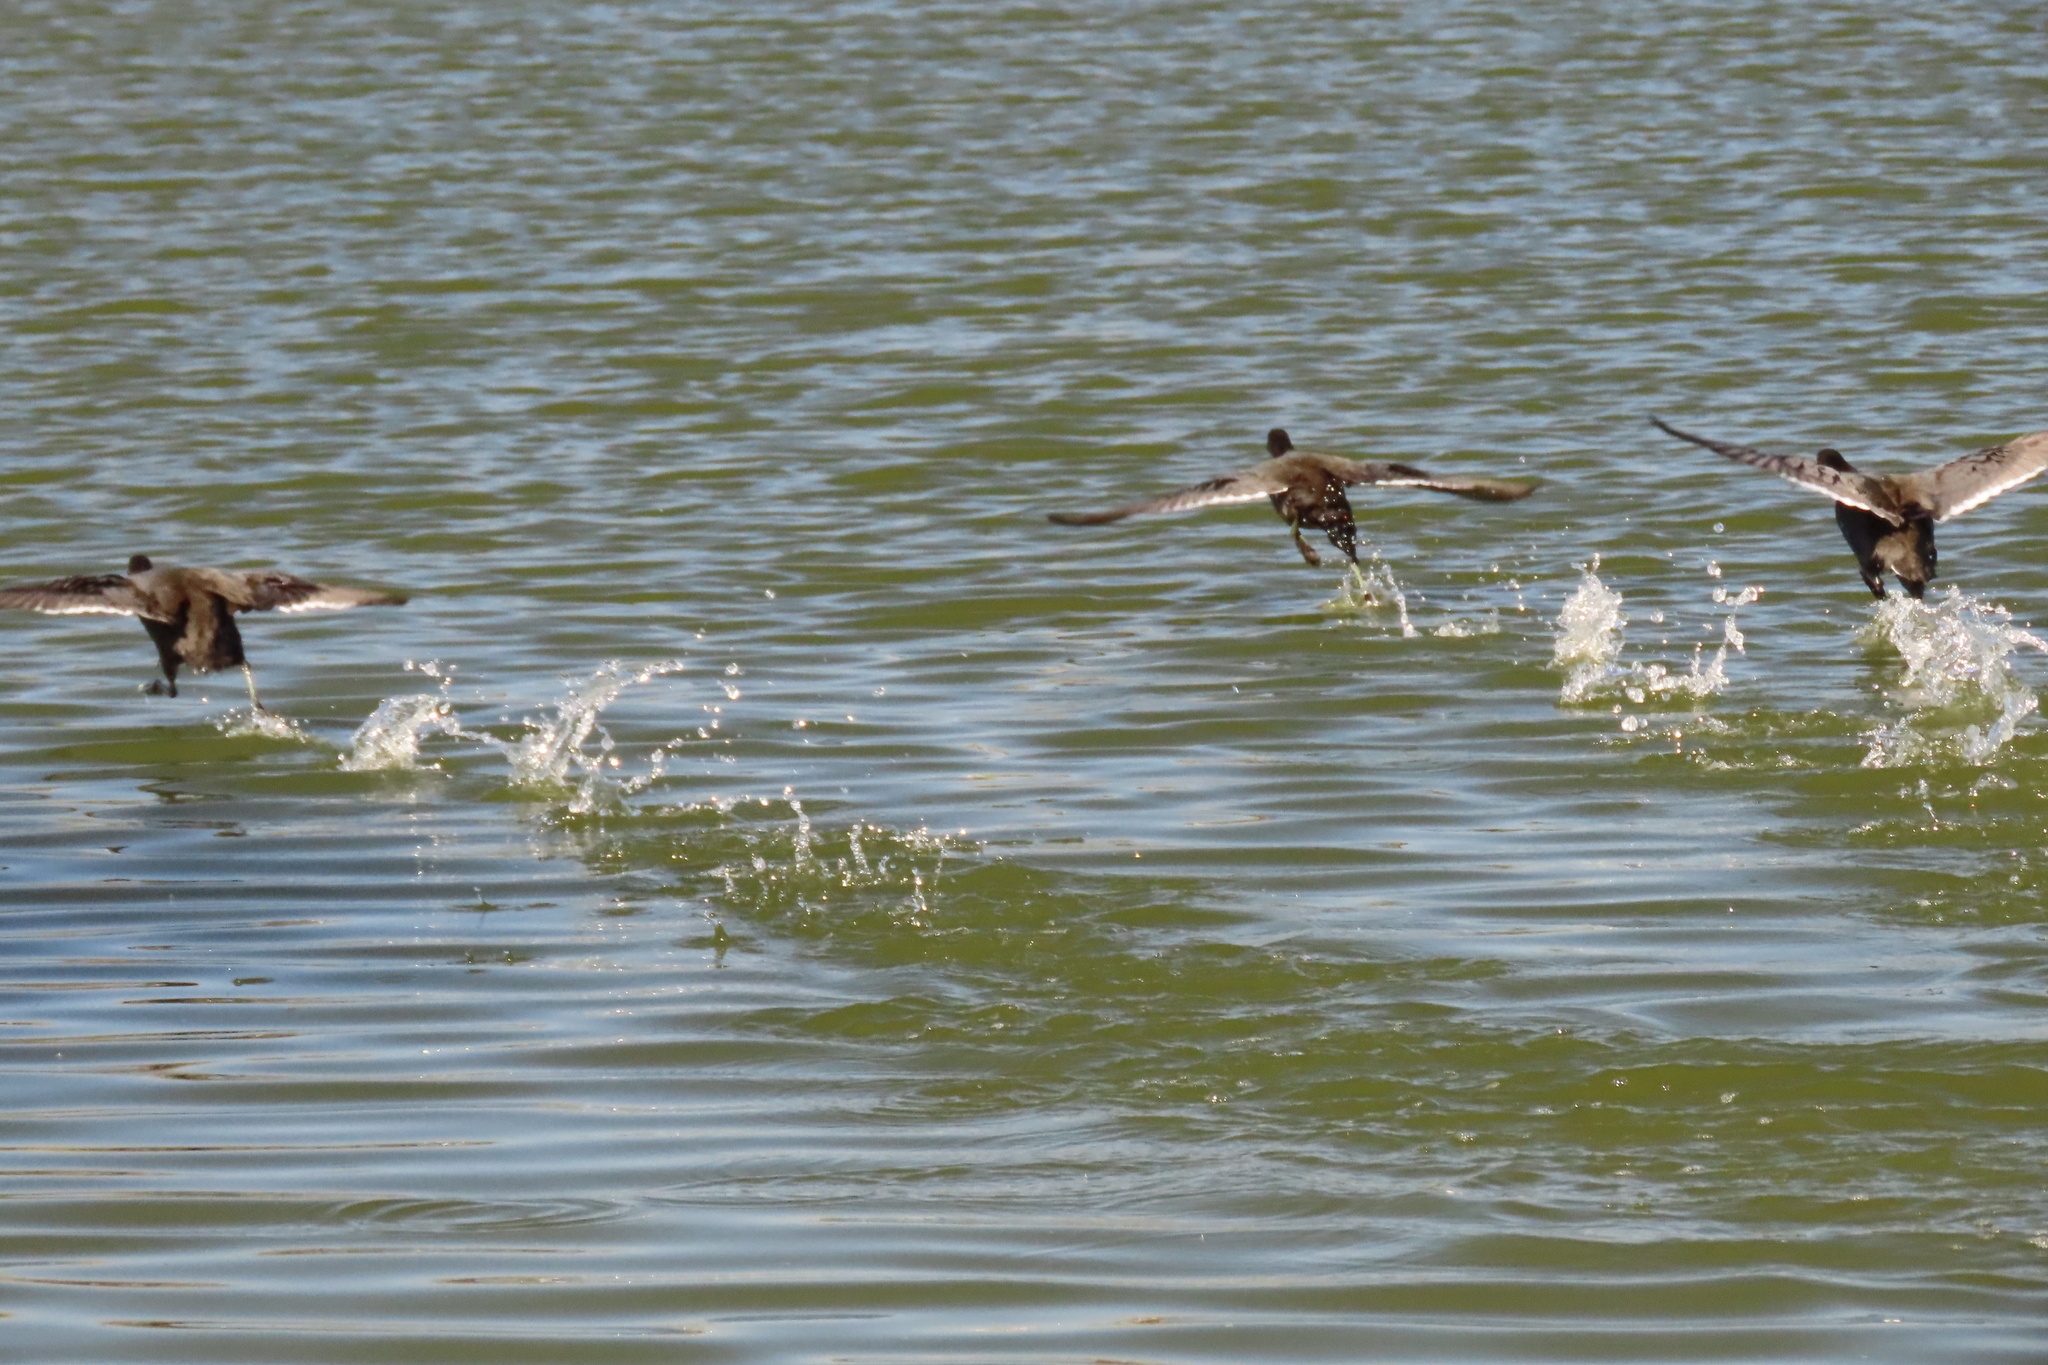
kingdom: Animalia
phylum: Chordata
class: Aves
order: Gruiformes
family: Rallidae
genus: Fulica
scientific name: Fulica americana
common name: American coot
